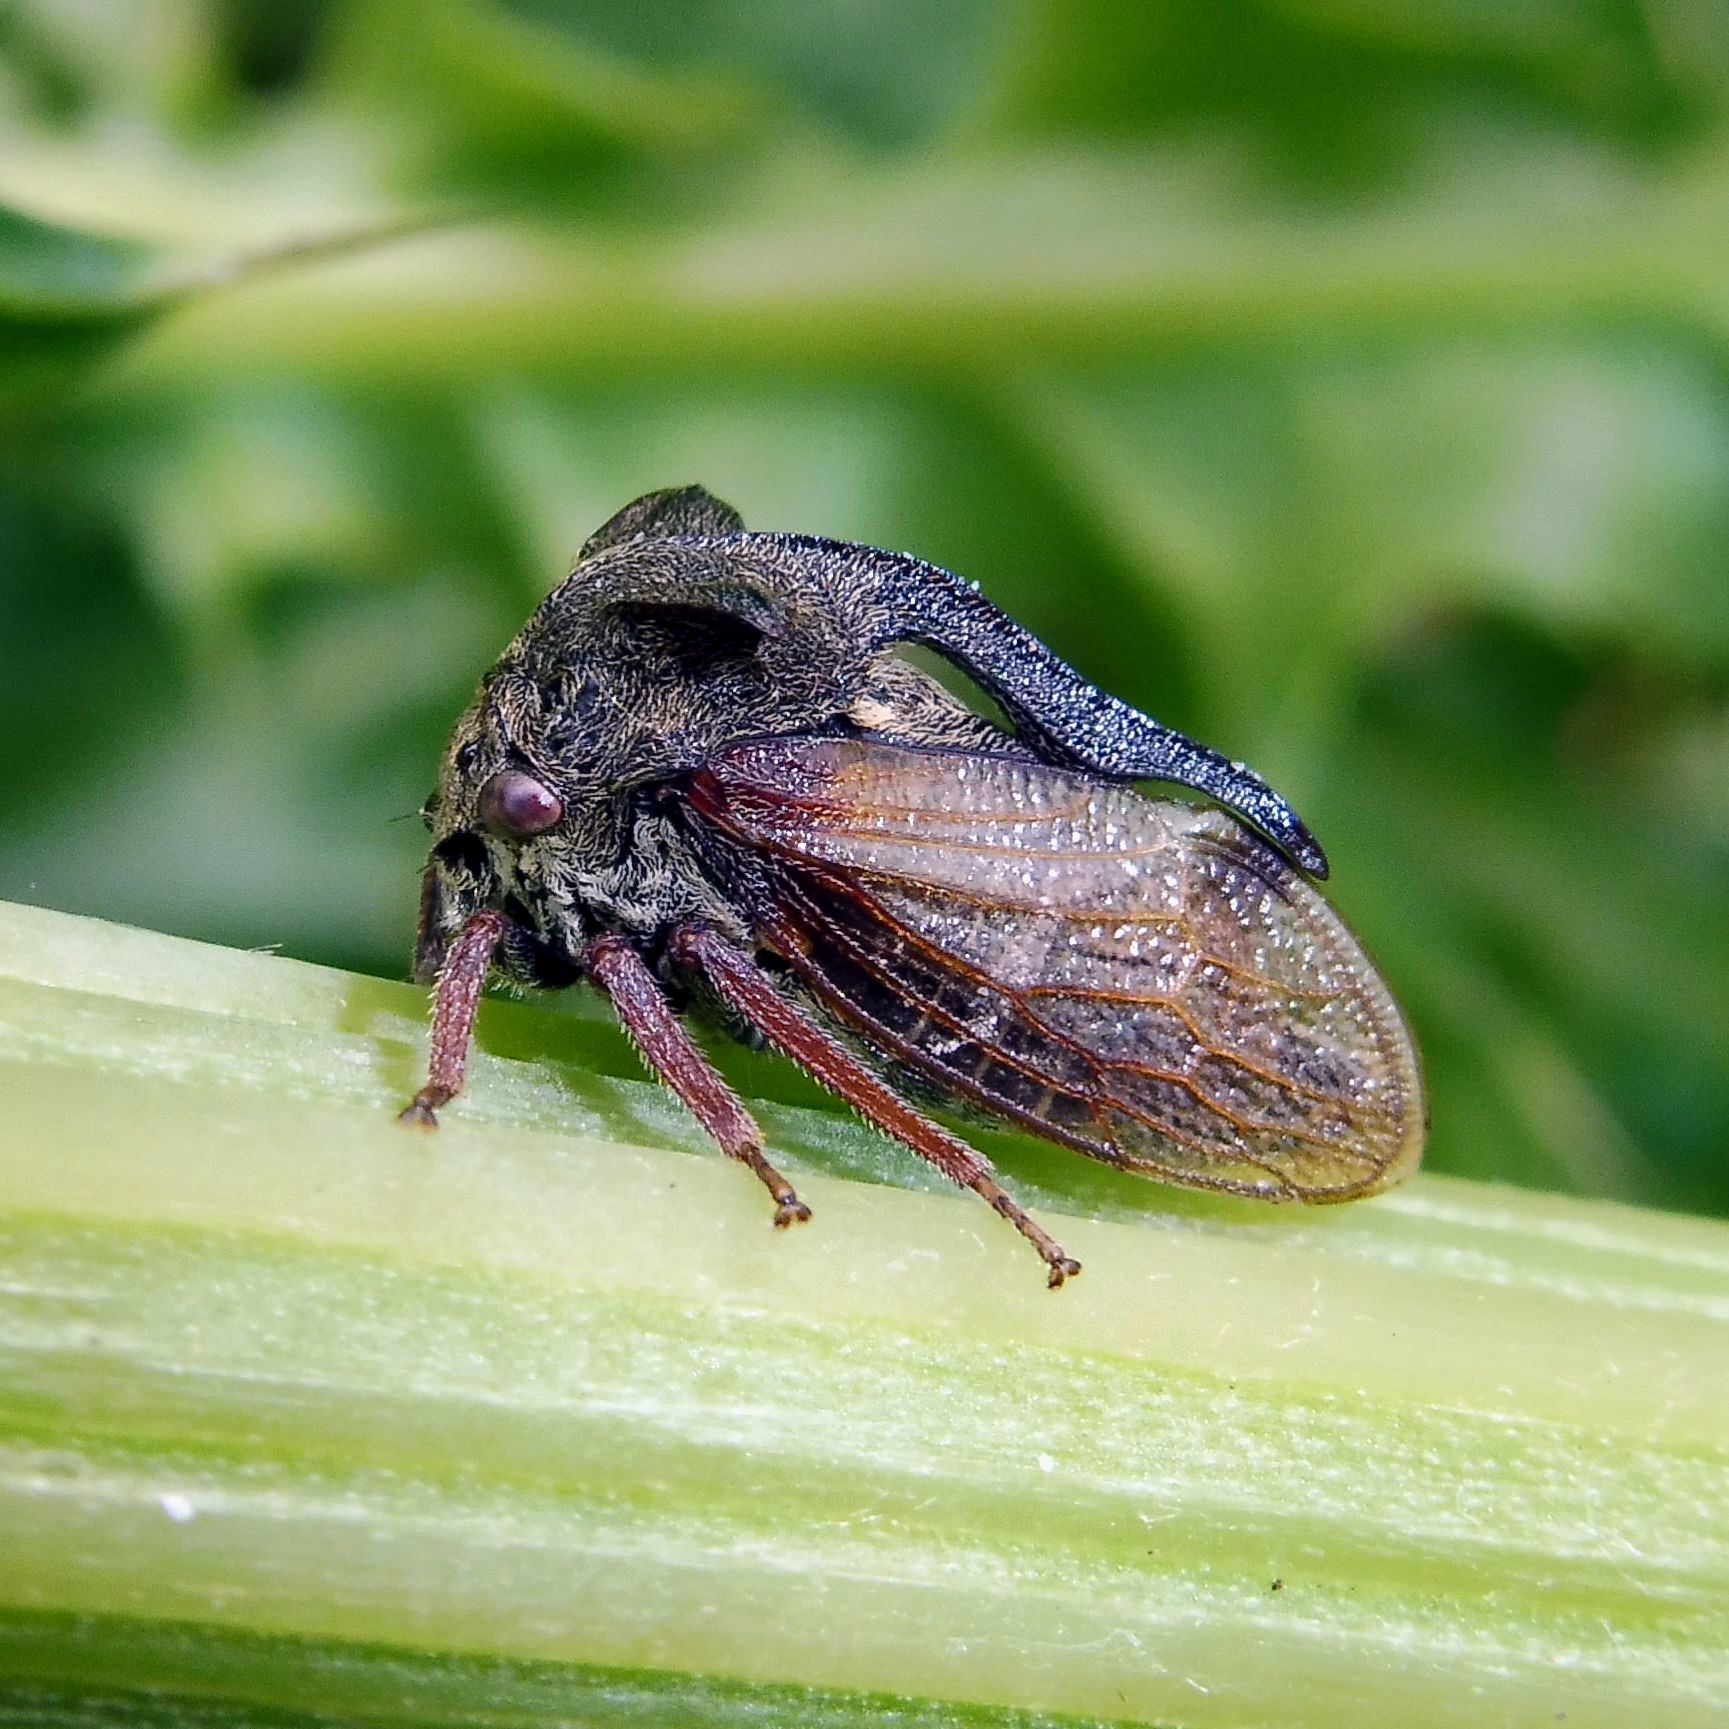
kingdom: Animalia
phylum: Arthropoda
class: Insecta
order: Hemiptera
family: Membracidae
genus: Centrotus
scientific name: Centrotus cornuta
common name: Treehopper
